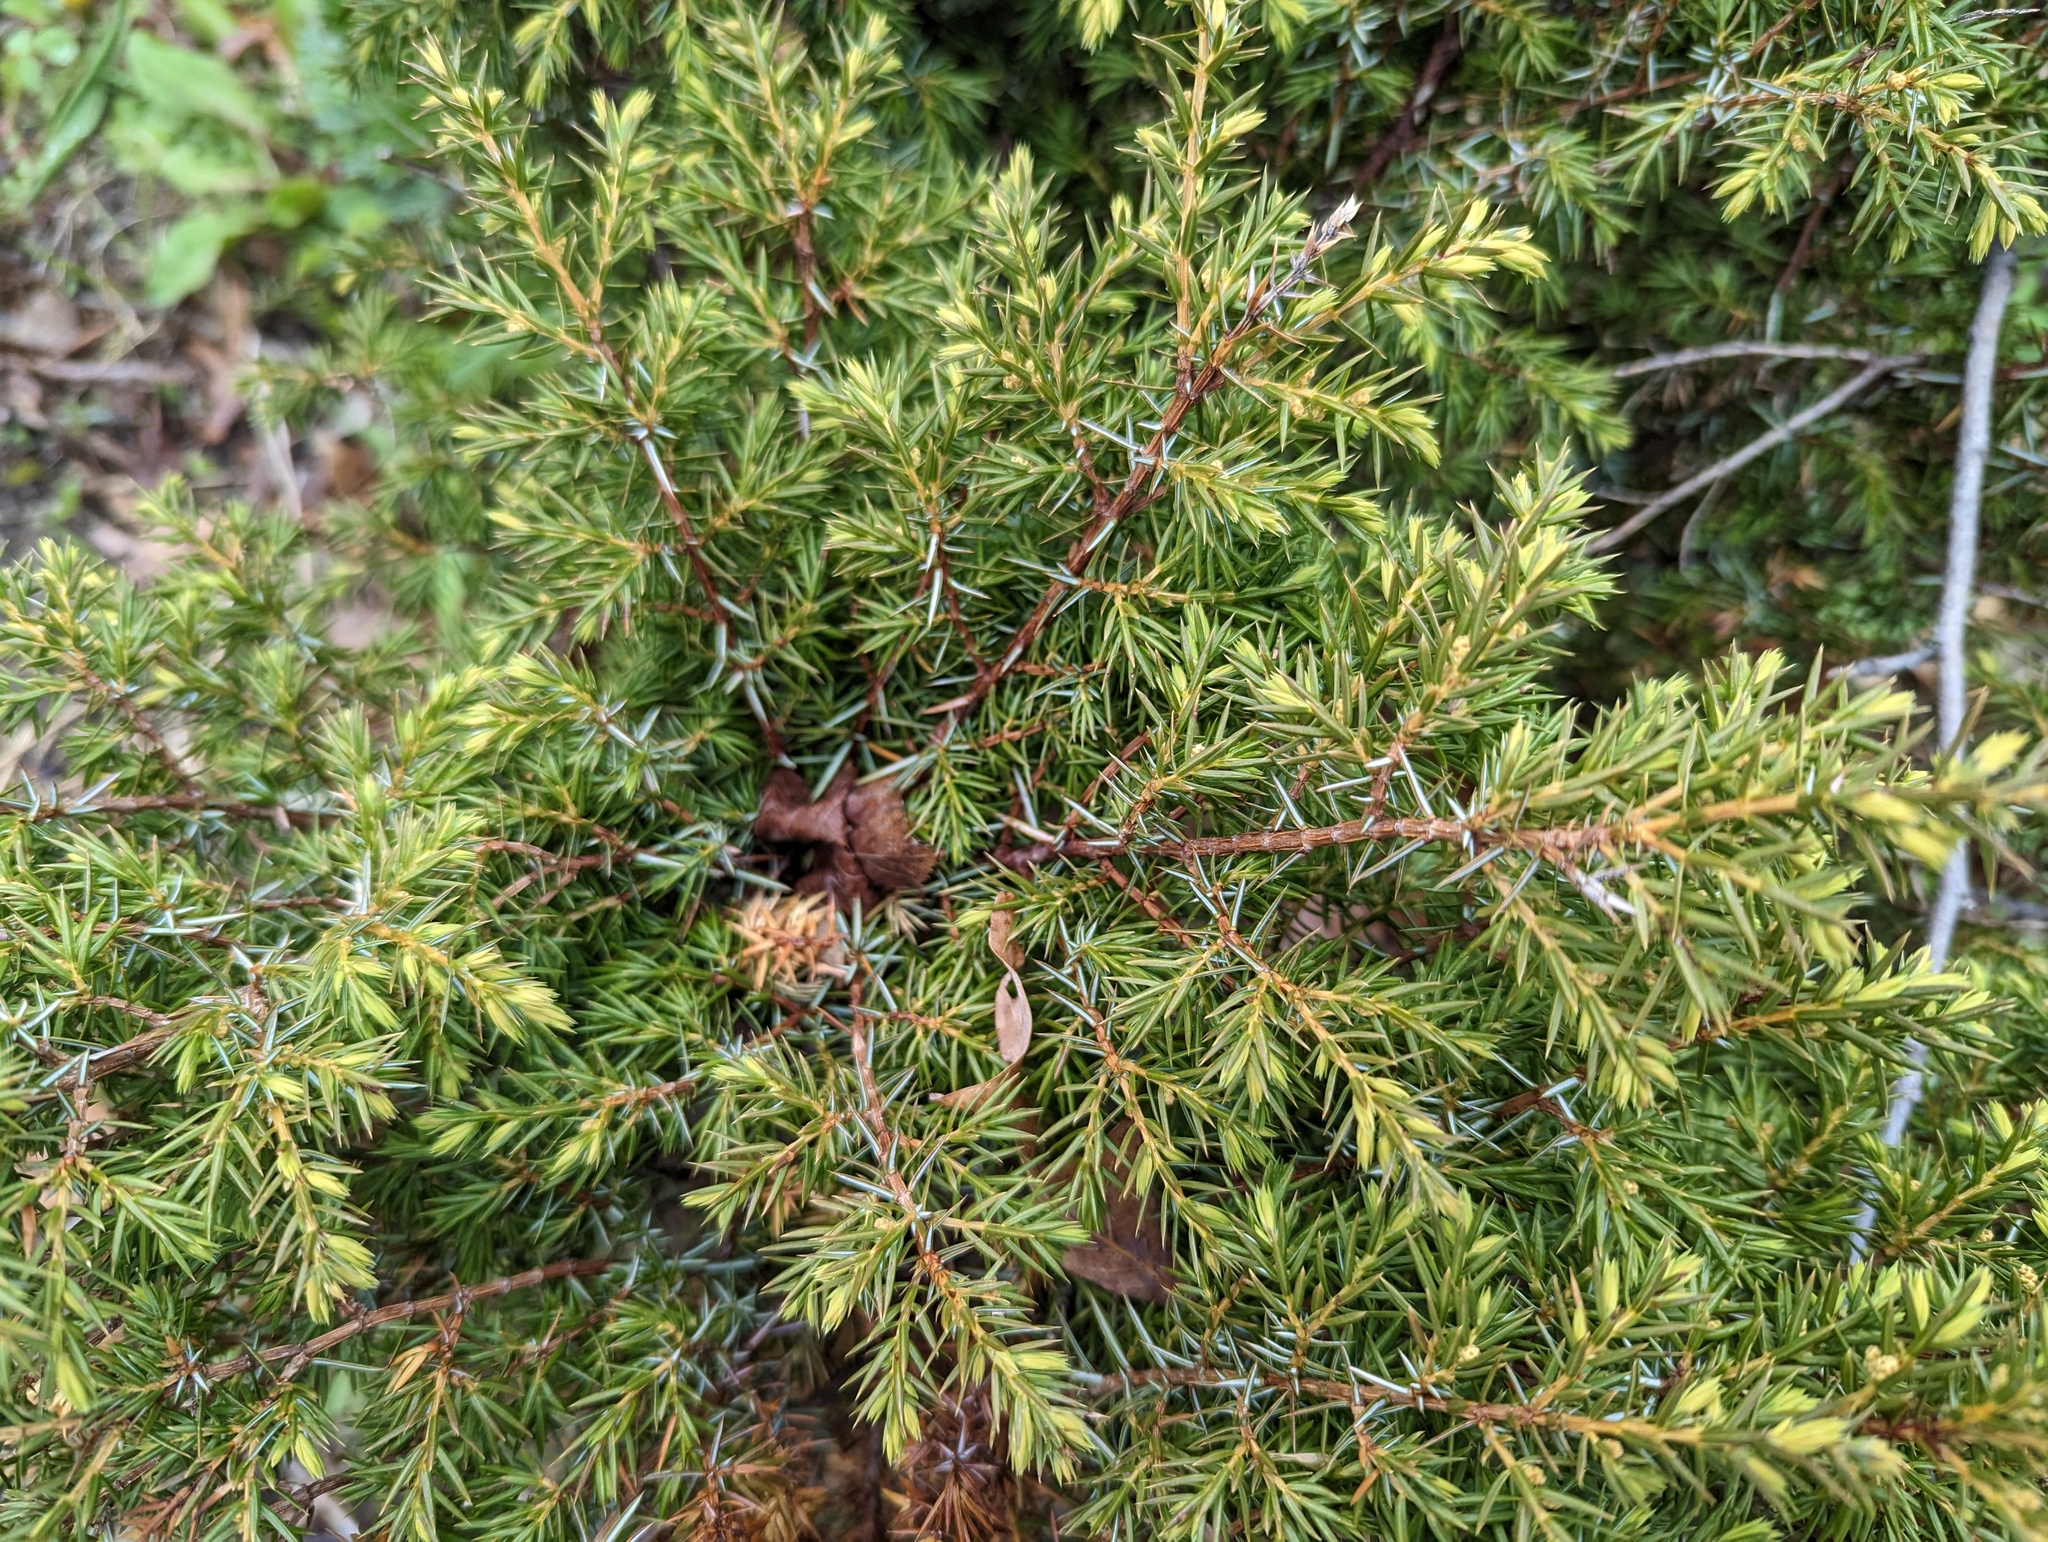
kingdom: Plantae
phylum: Tracheophyta
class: Pinopsida
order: Pinales
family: Cupressaceae
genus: Juniperus
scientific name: Juniperus communis
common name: Common juniper
